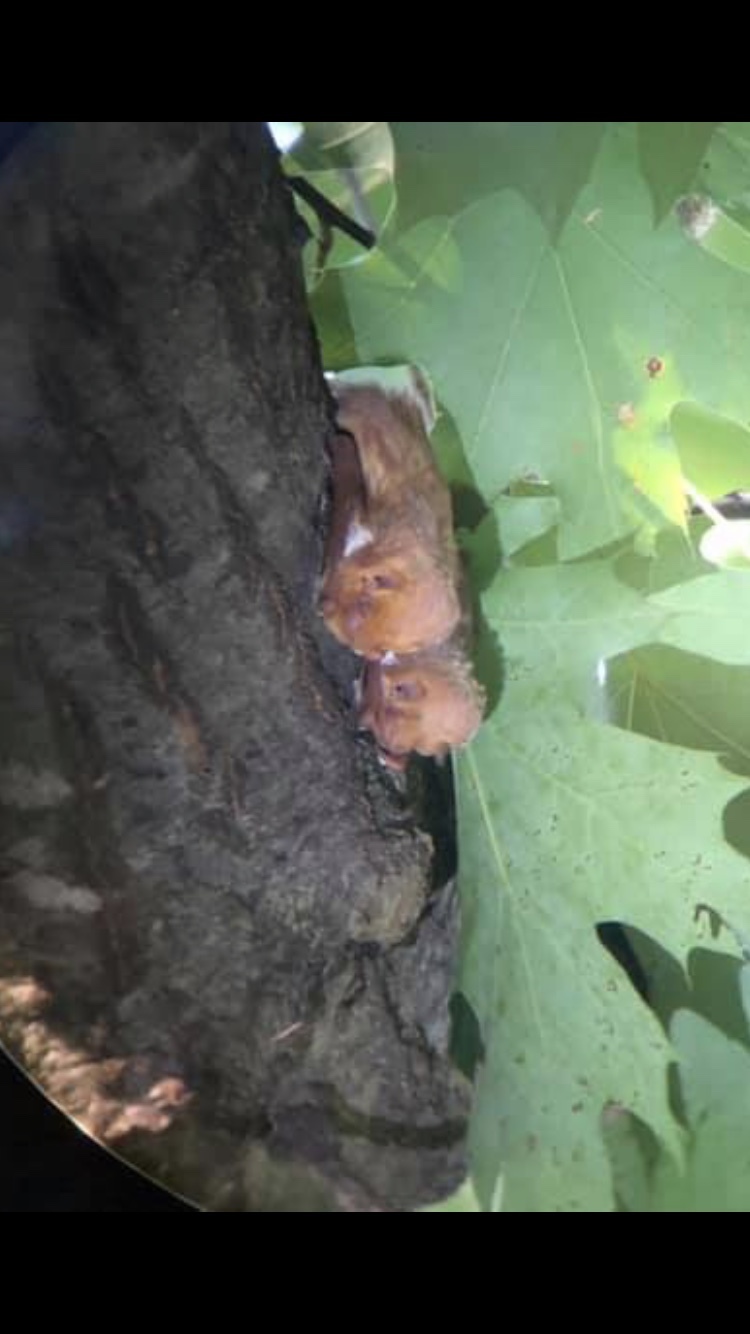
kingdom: Animalia
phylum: Chordata
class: Mammalia
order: Chiroptera
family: Vespertilionidae
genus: Lasiurus
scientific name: Lasiurus borealis
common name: Eastern red bat
